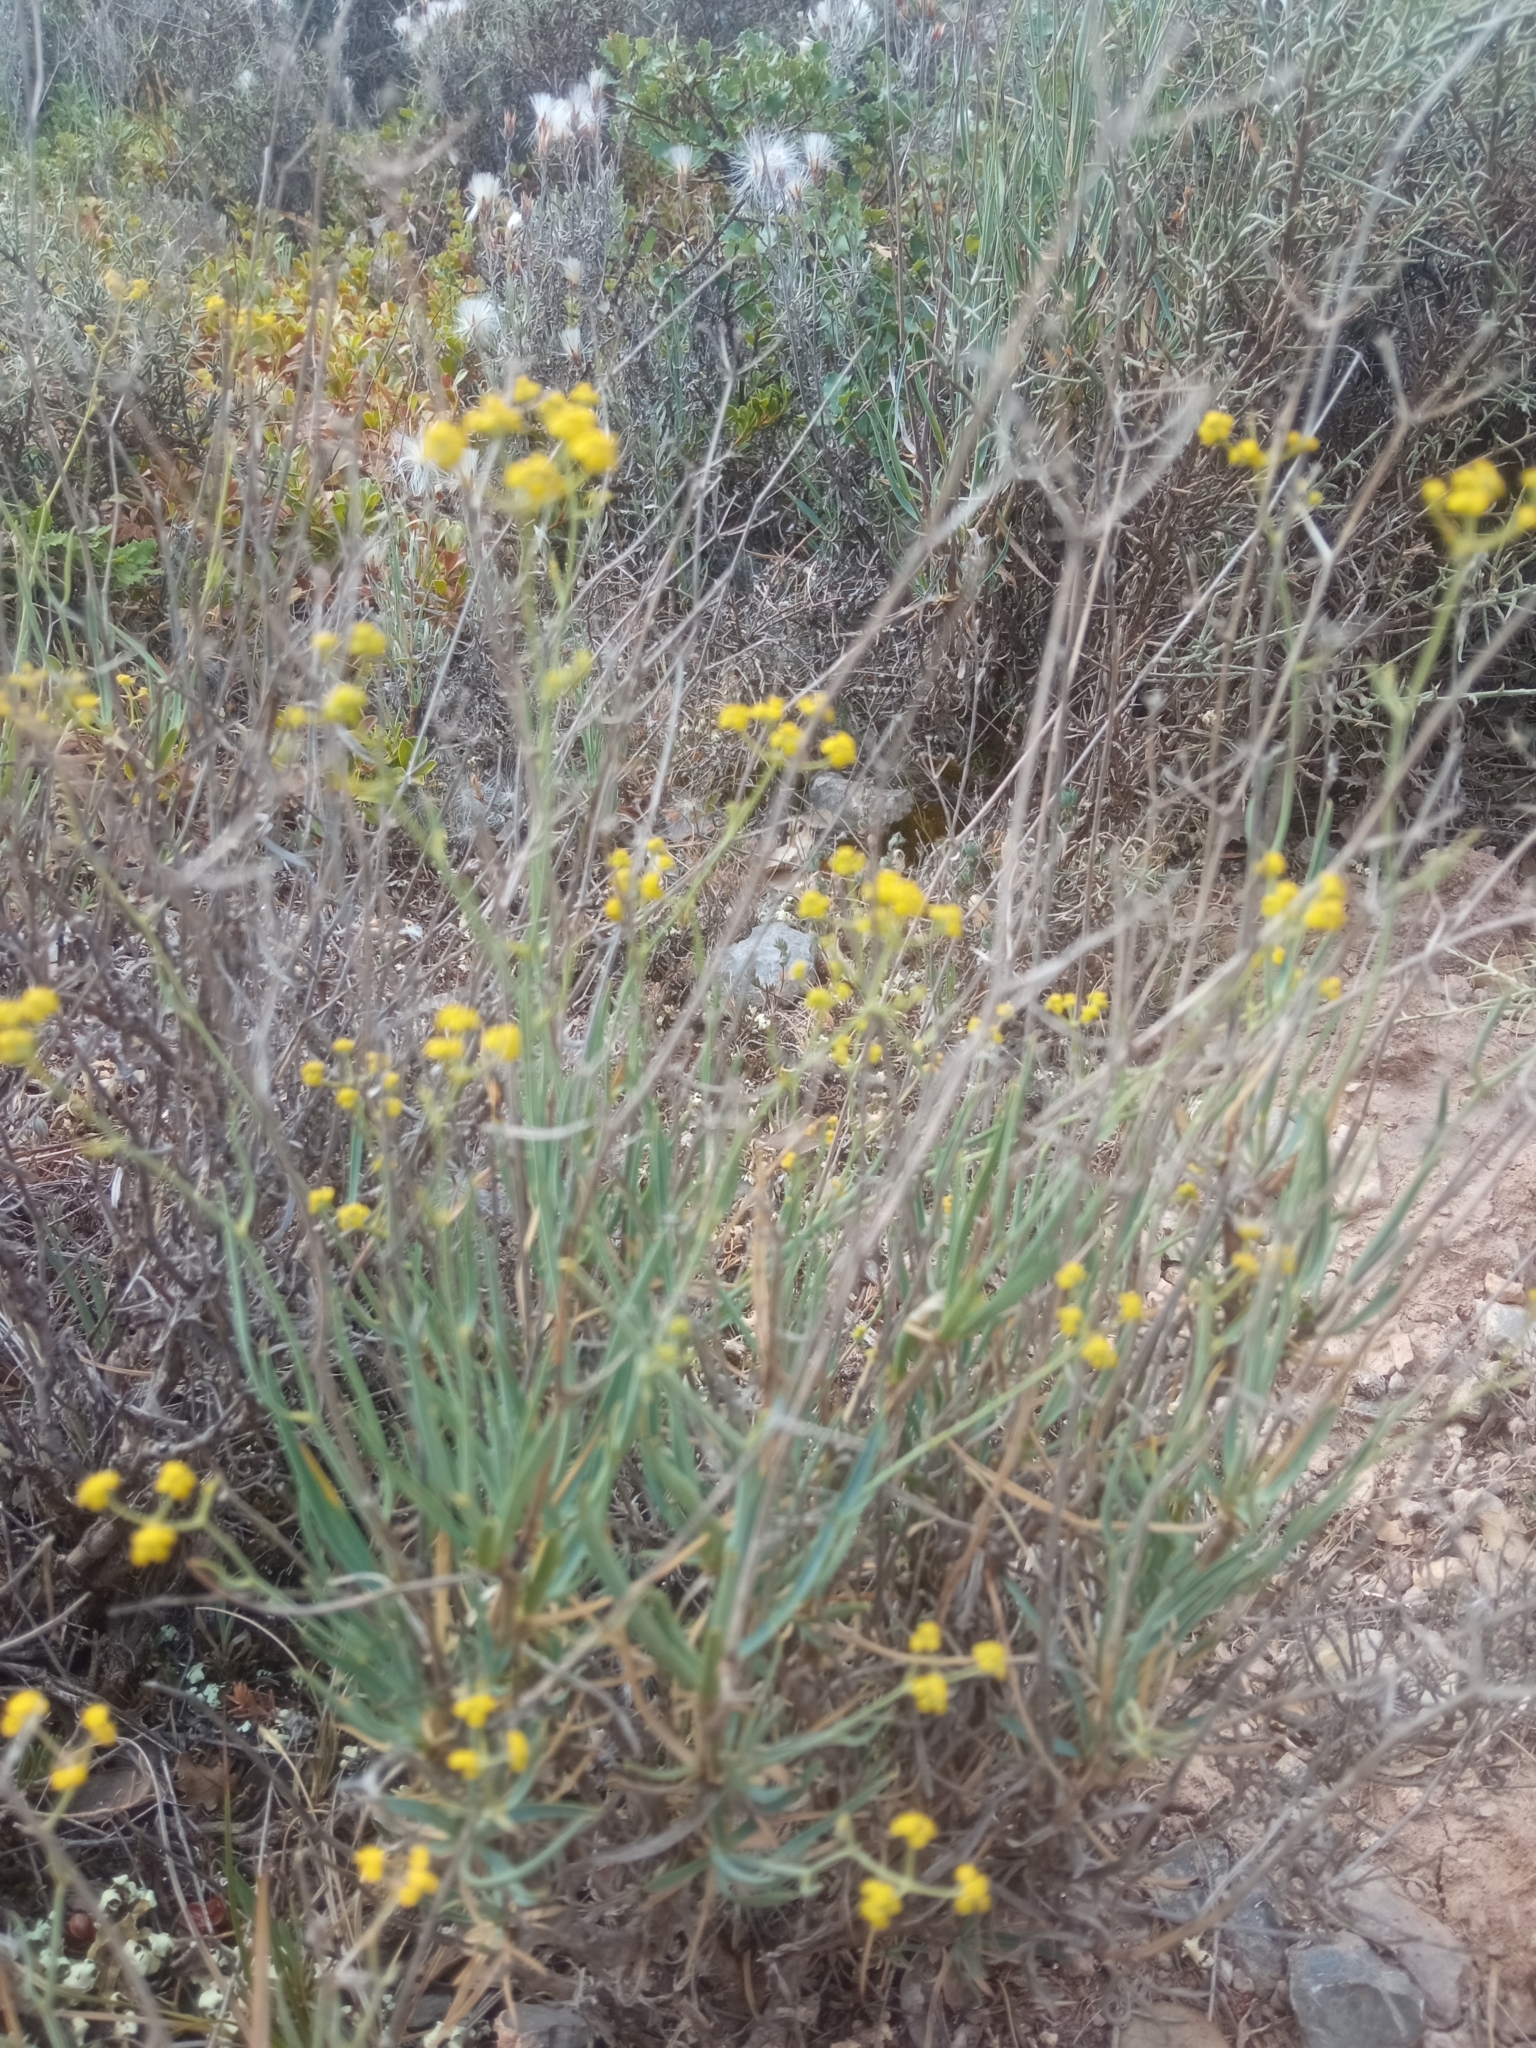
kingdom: Plantae
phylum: Tracheophyta
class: Magnoliopsida
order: Apiales
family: Apiaceae
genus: Bupleurum
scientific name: Bupleurum fruticescens
